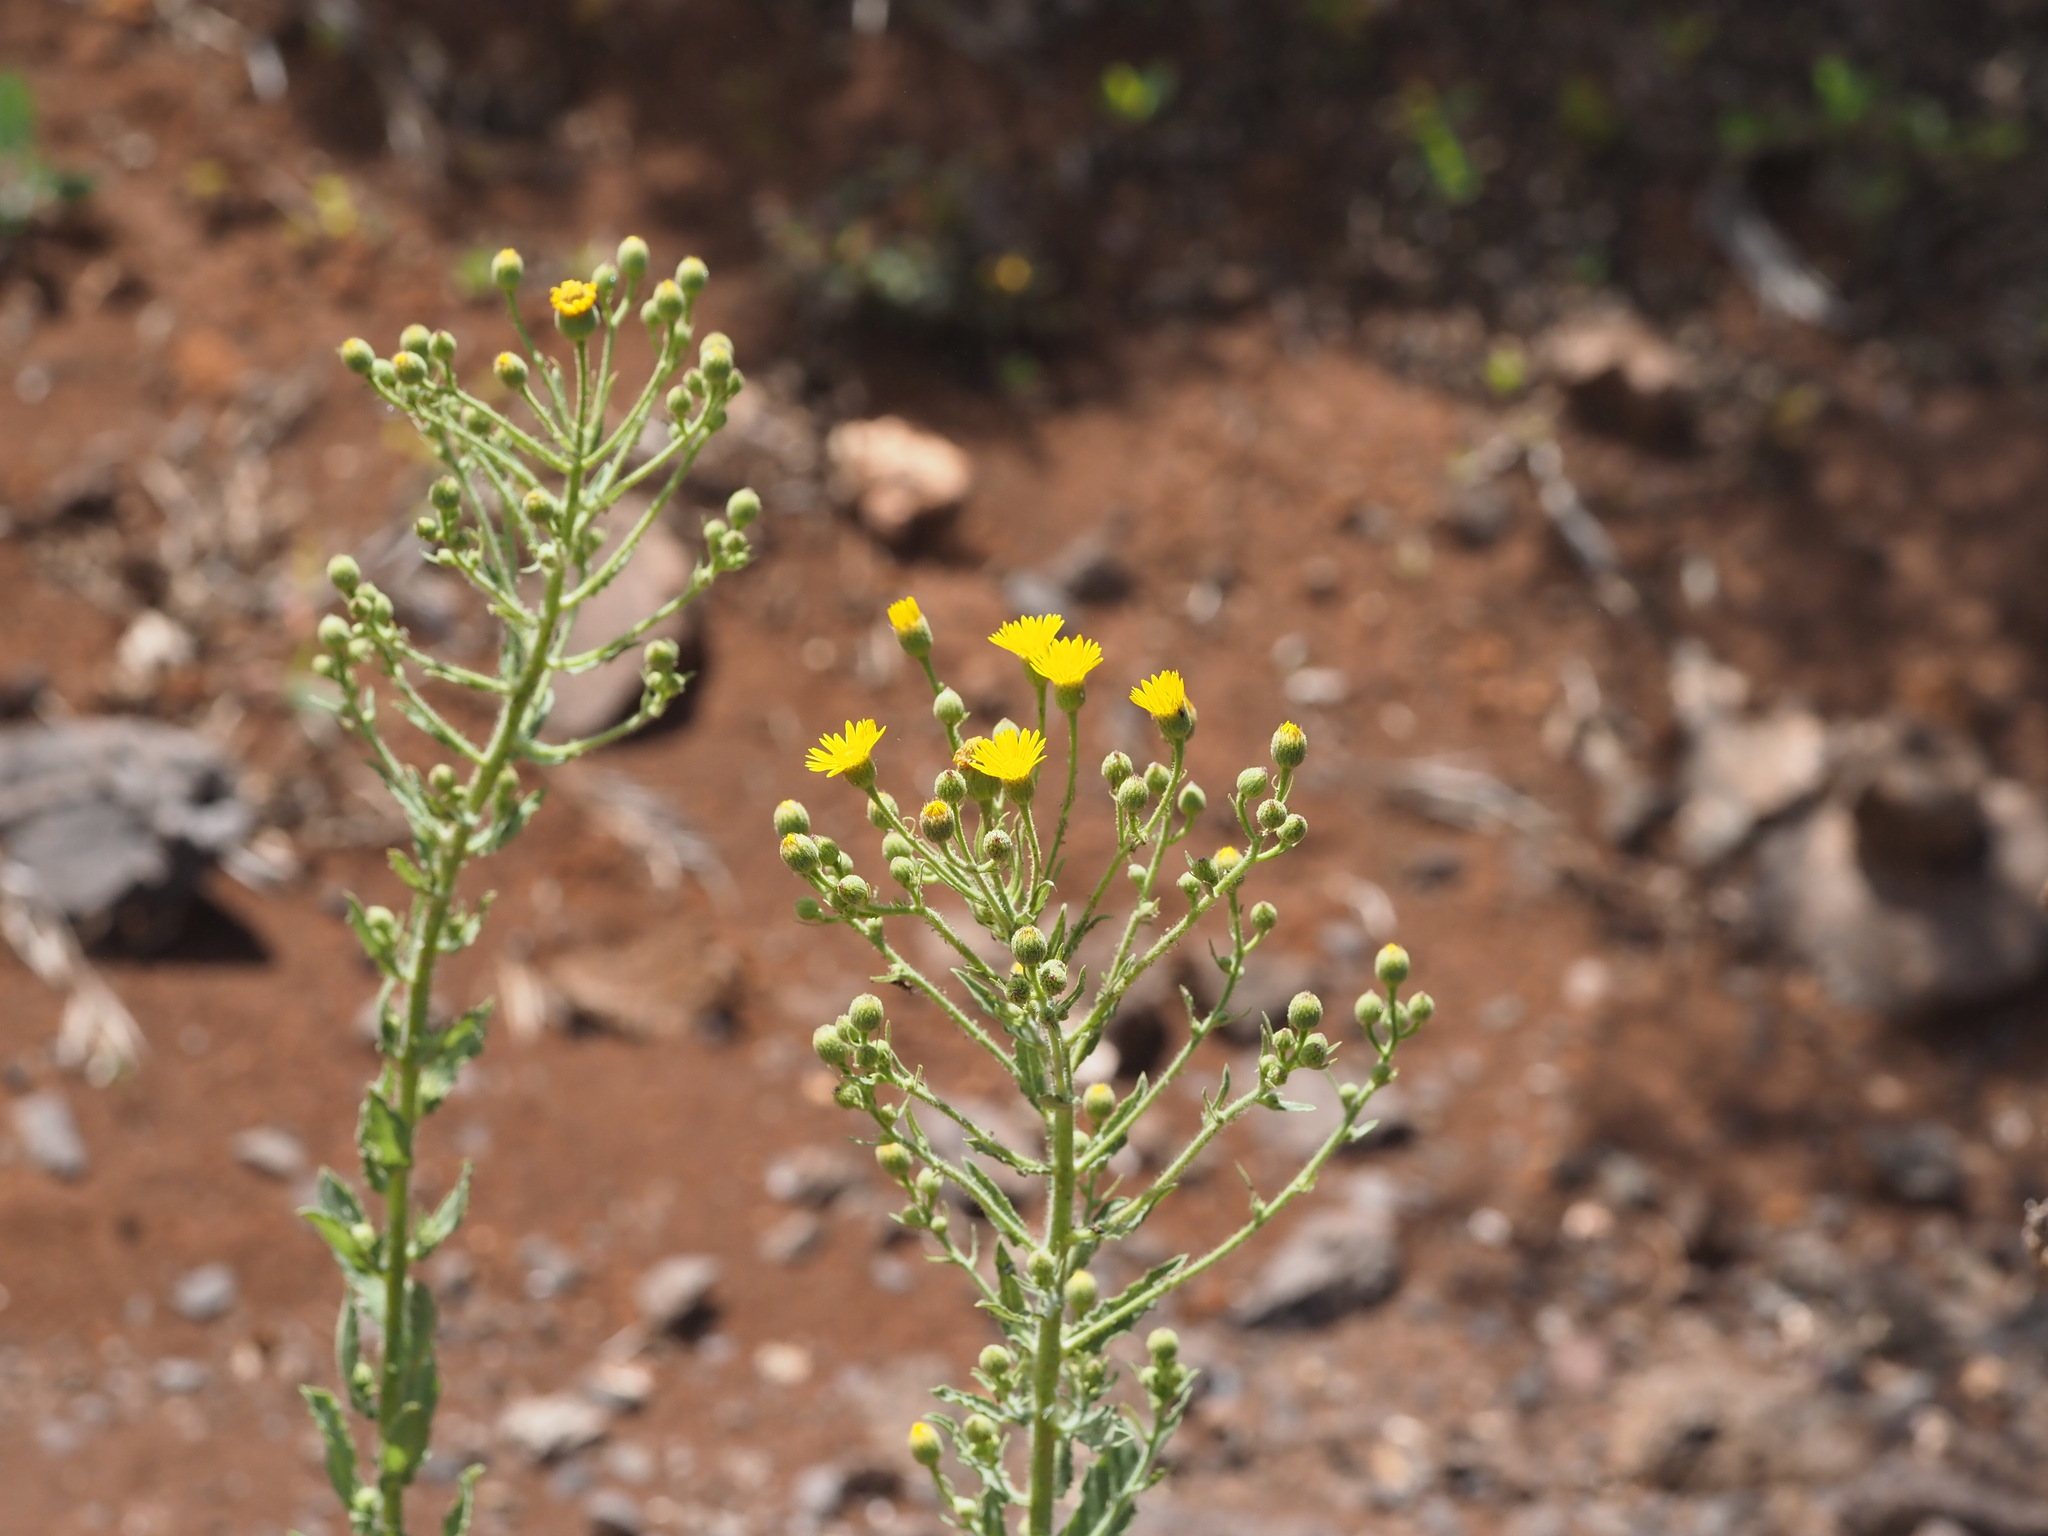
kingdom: Plantae
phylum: Tracheophyta
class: Magnoliopsida
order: Asterales
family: Asteraceae
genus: Heterotheca
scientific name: Heterotheca grandiflora
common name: Telegraphweed
